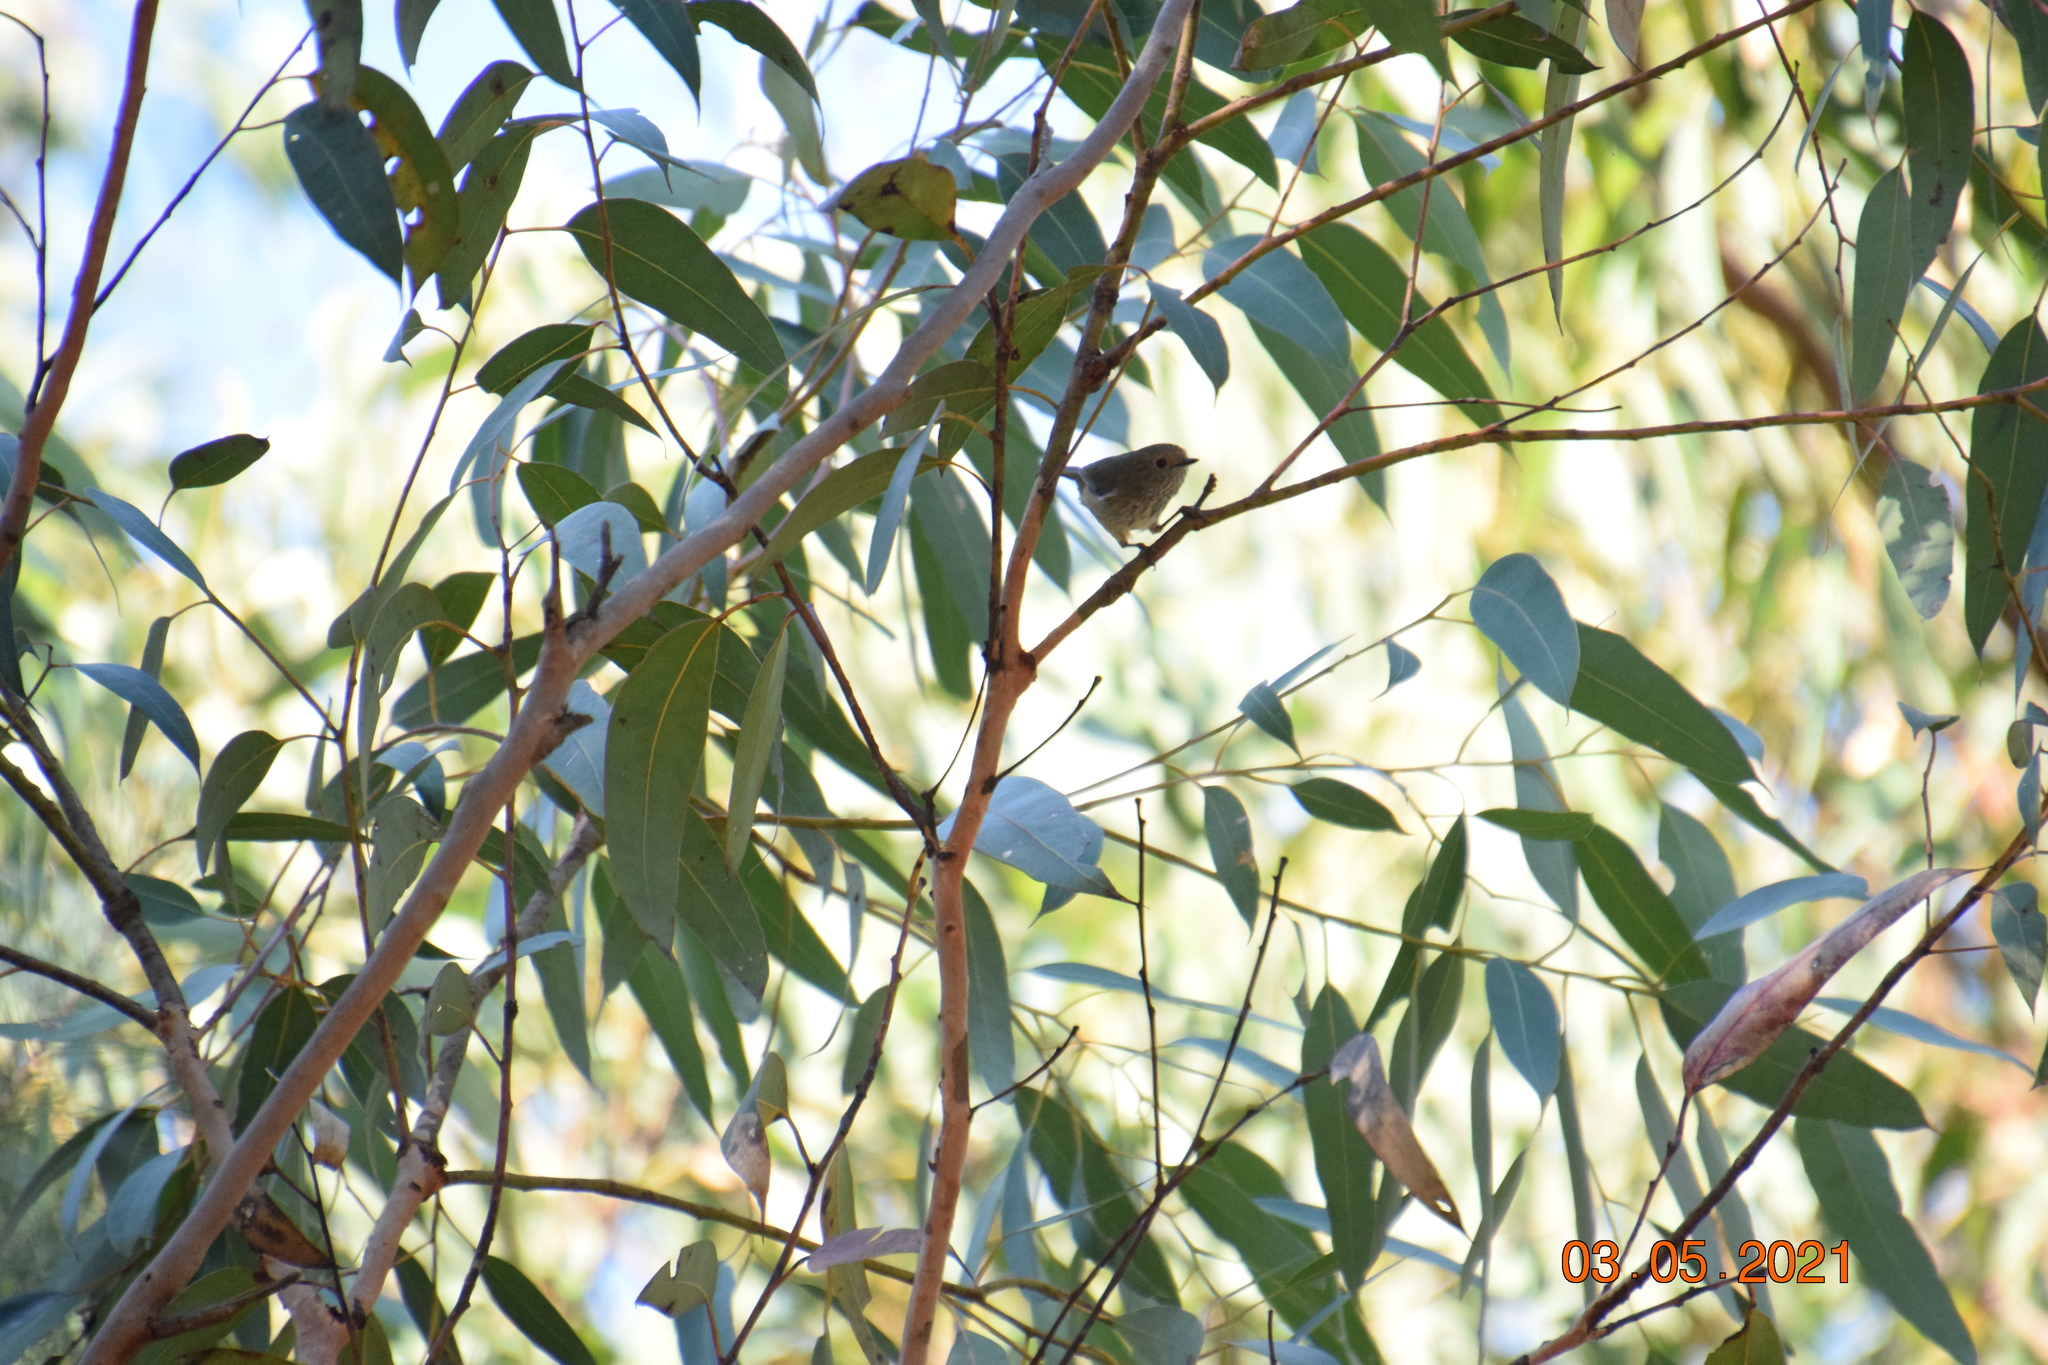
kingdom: Animalia
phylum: Chordata
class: Aves
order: Passeriformes
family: Acanthizidae
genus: Acanthiza
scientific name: Acanthiza pusilla
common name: Brown thornbill
